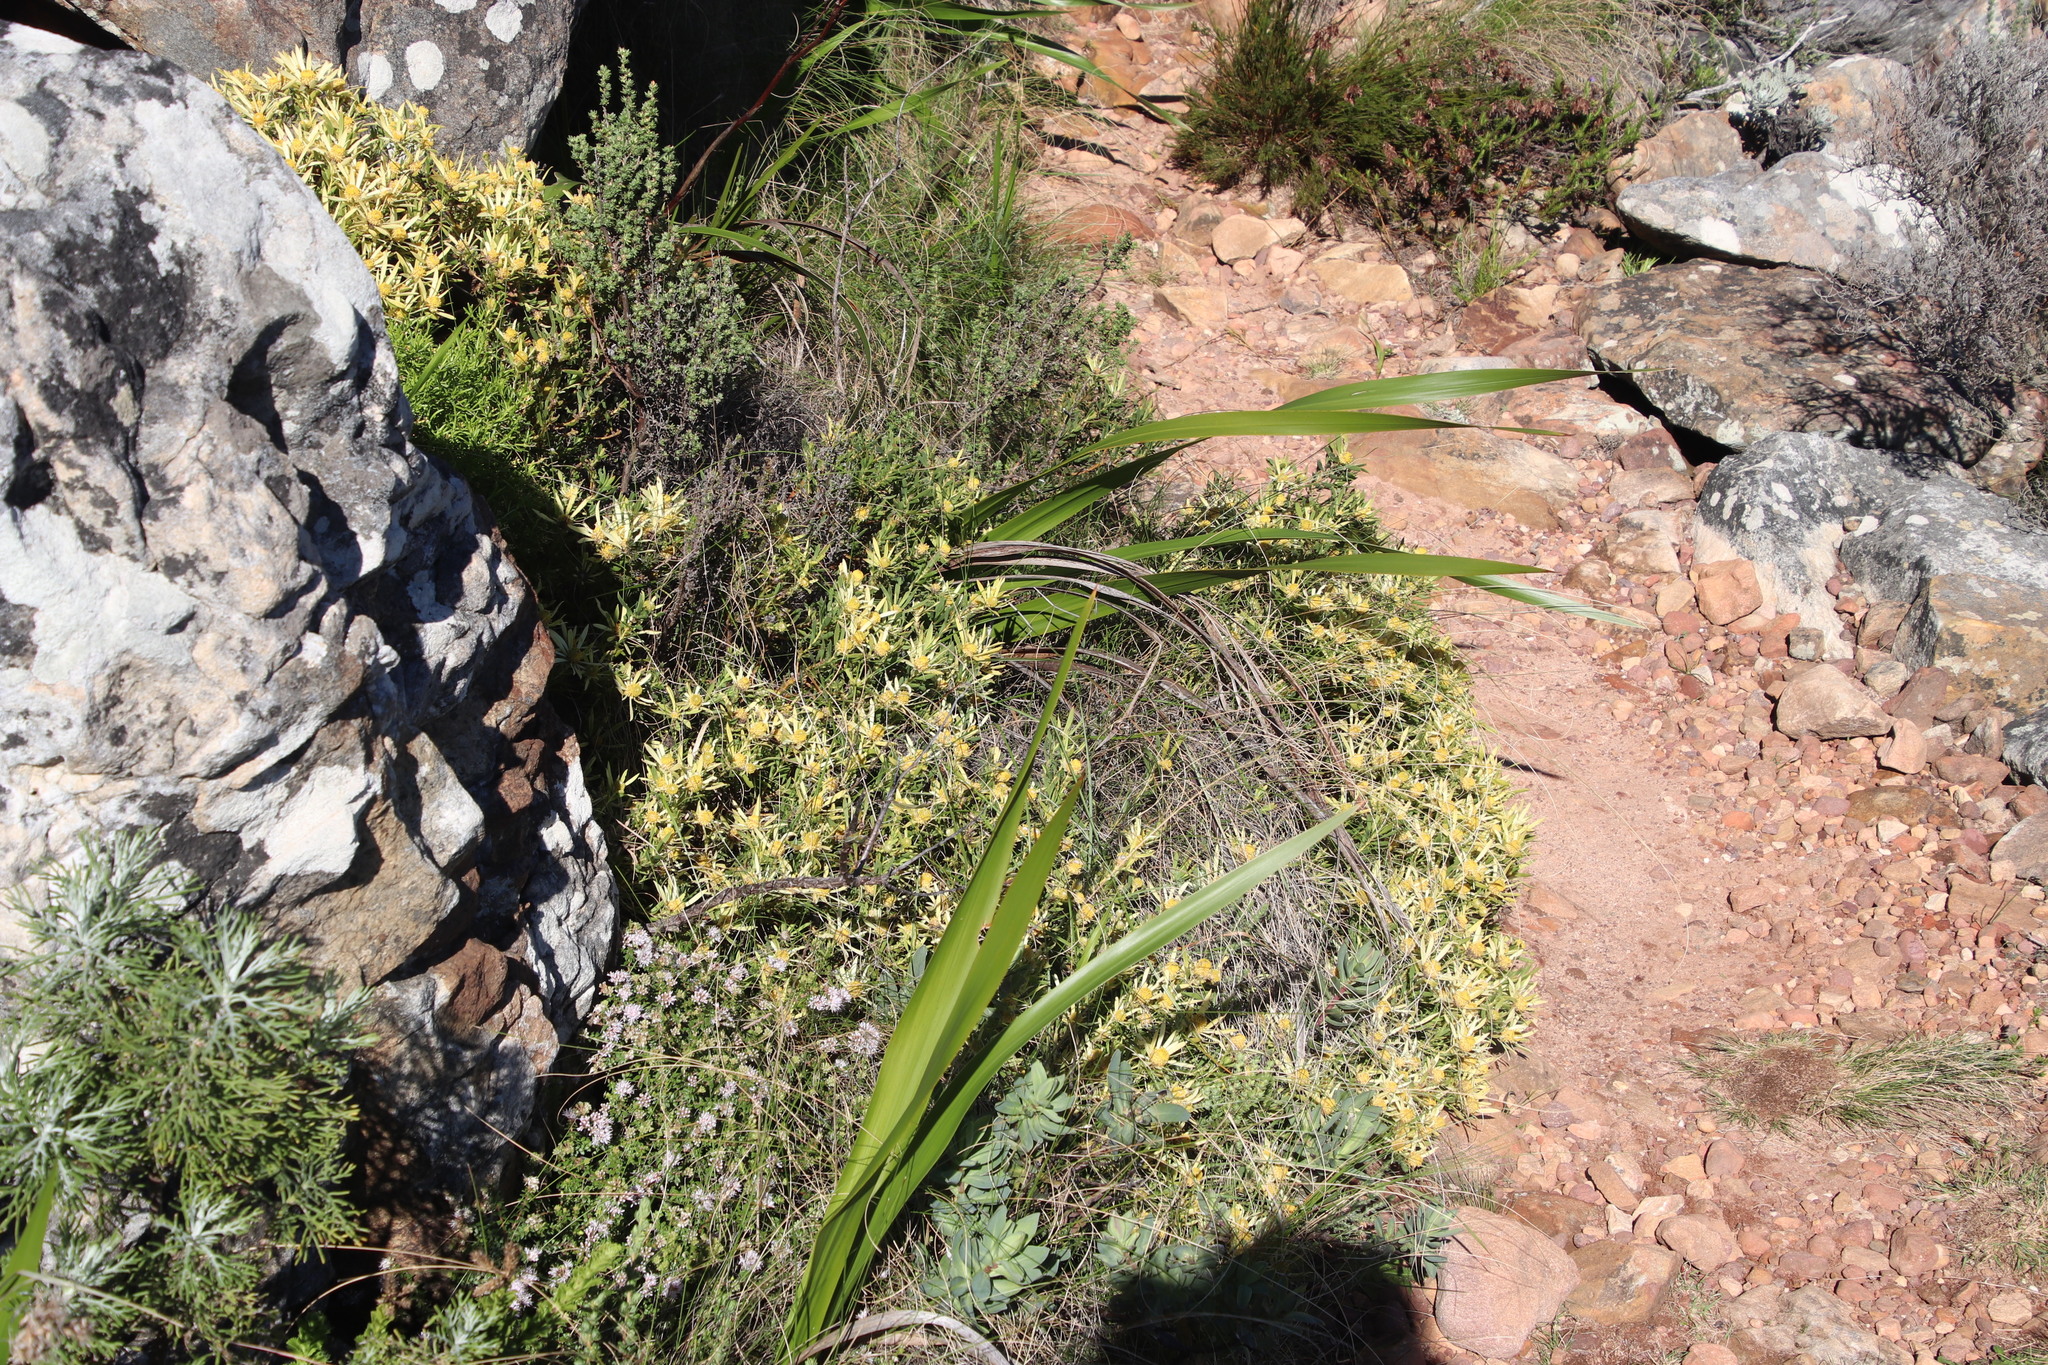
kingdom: Plantae
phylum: Tracheophyta
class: Magnoliopsida
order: Proteales
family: Proteaceae
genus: Leucadendron
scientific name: Leucadendron salignum
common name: Common sunshine conebush
